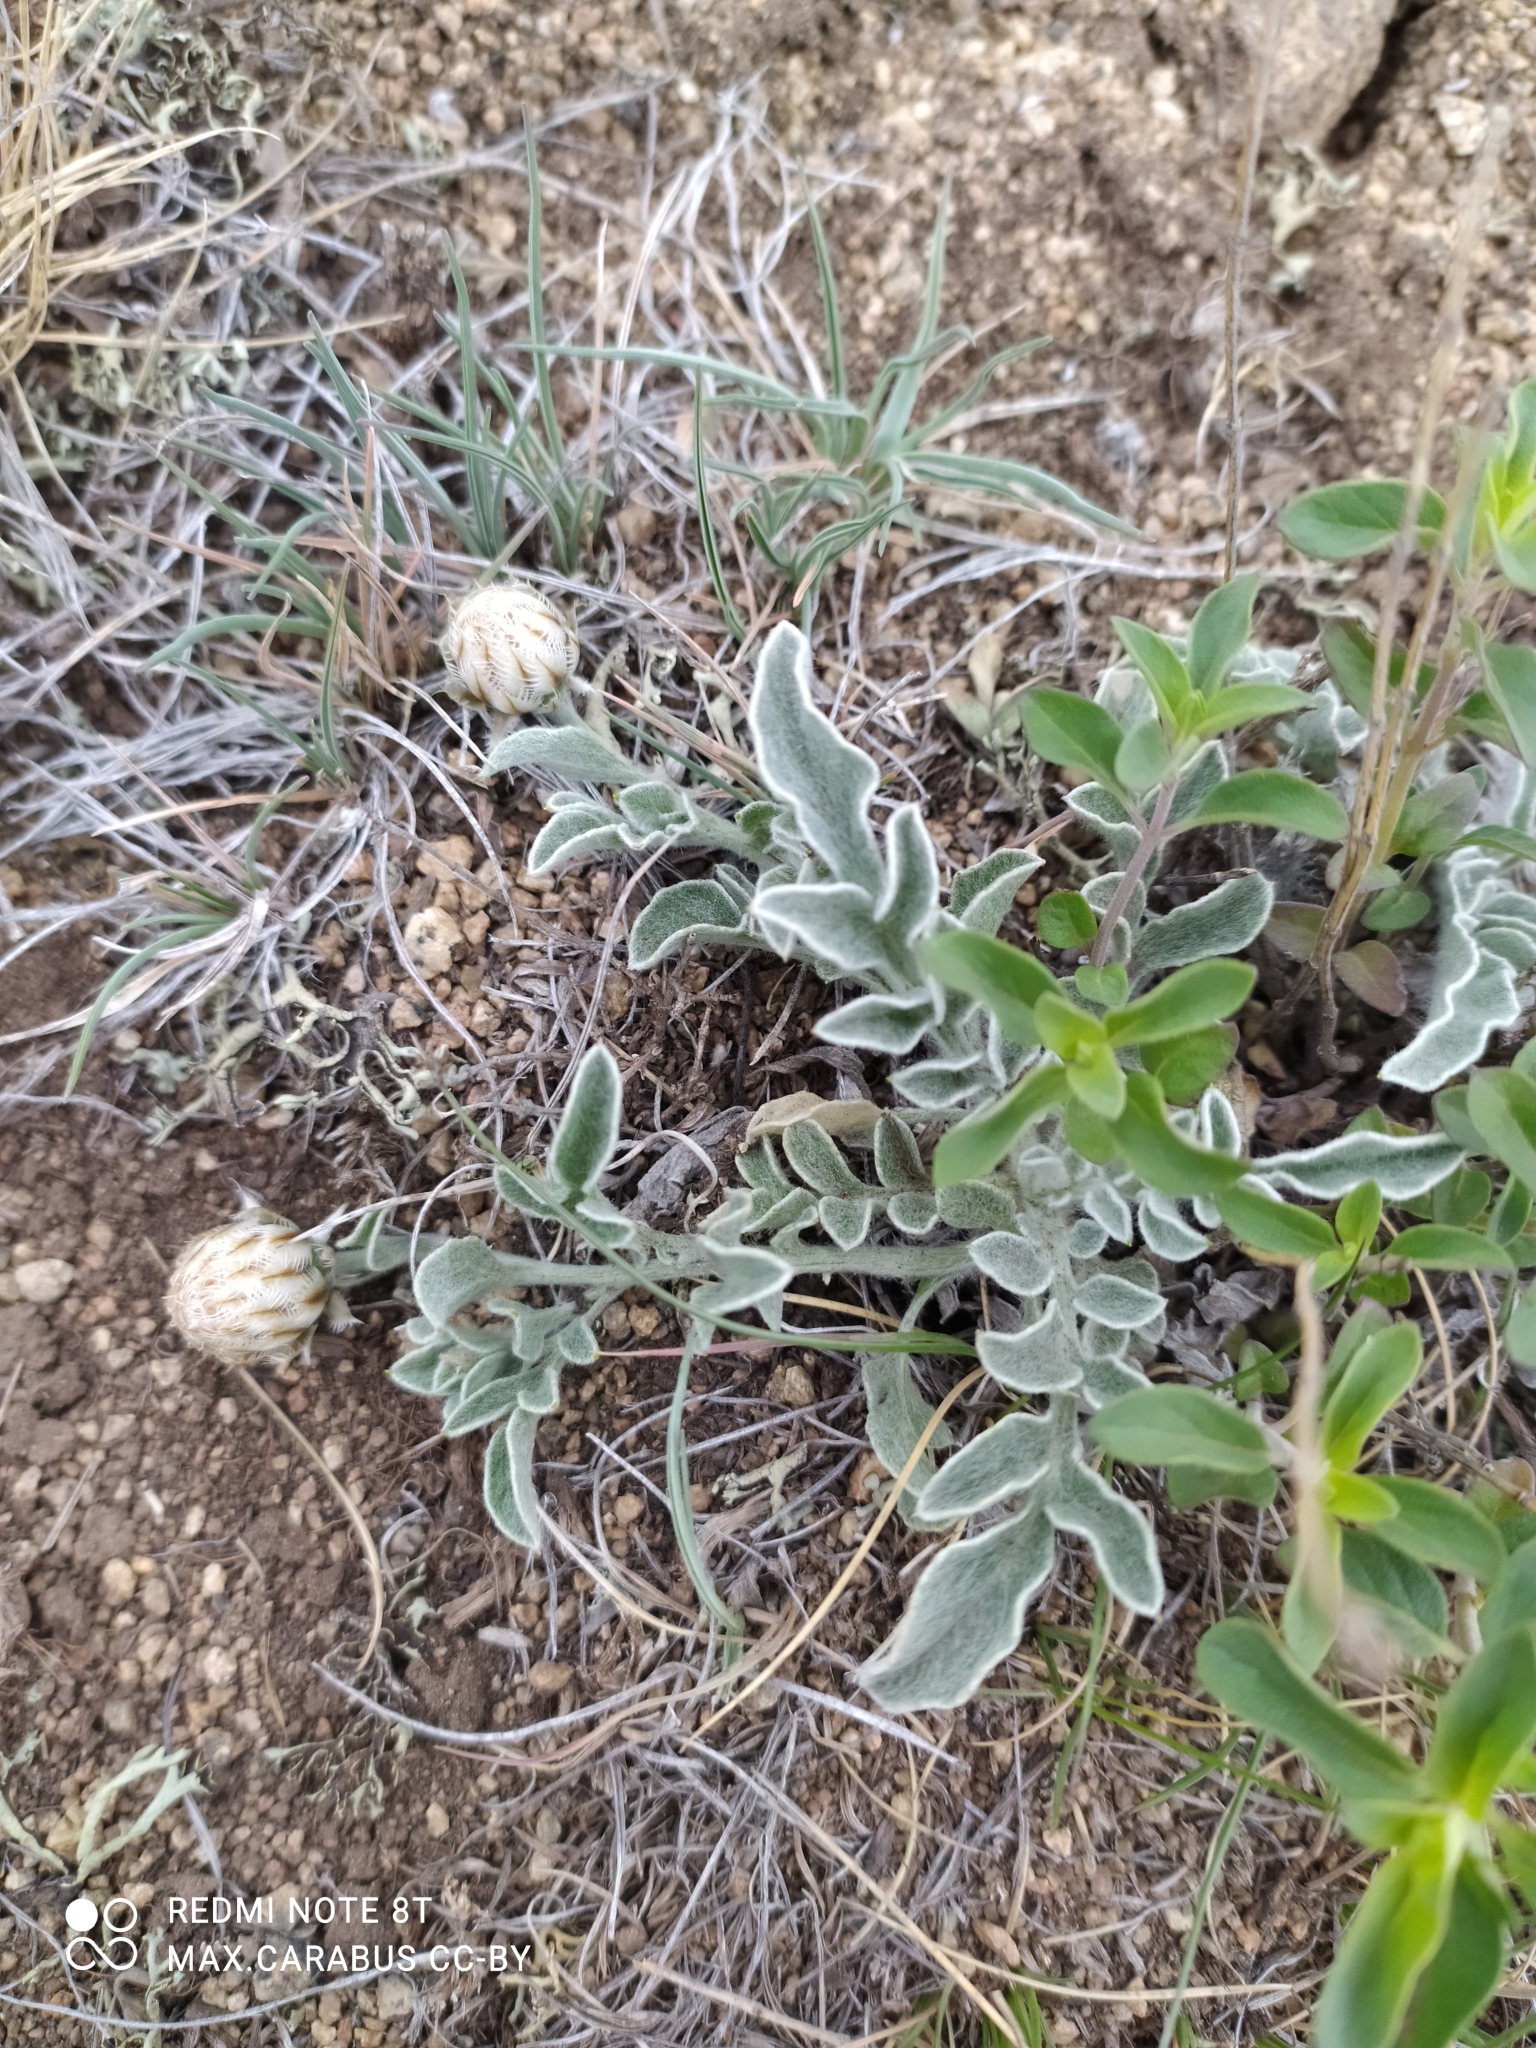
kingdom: Plantae
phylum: Tracheophyta
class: Magnoliopsida
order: Asterales
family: Asteraceae
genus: Psephellus
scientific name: Psephellus sibiricus
